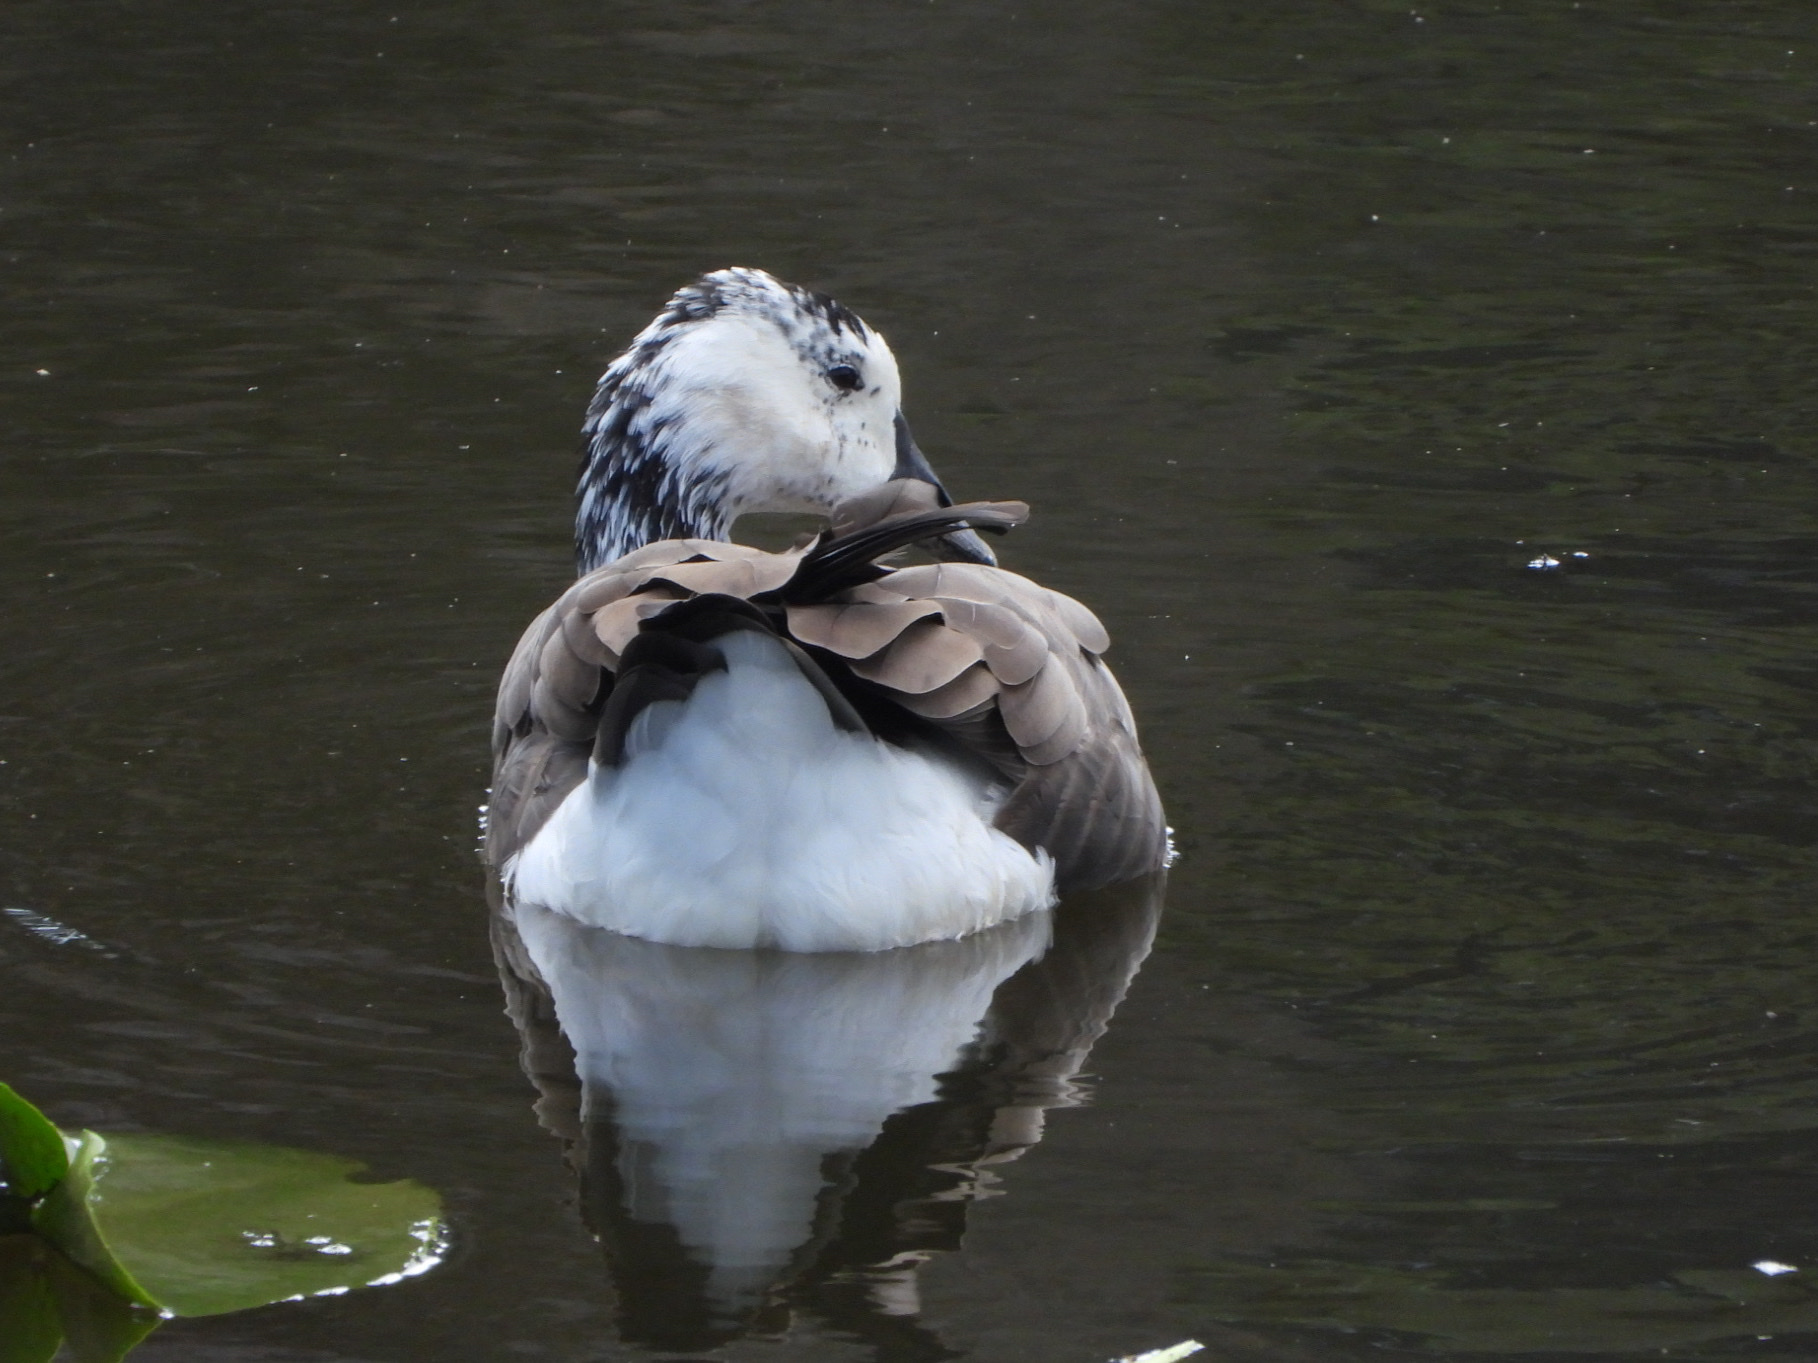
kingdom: Animalia
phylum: Chordata
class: Aves
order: Anseriformes
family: Anatidae
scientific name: Anatidae
